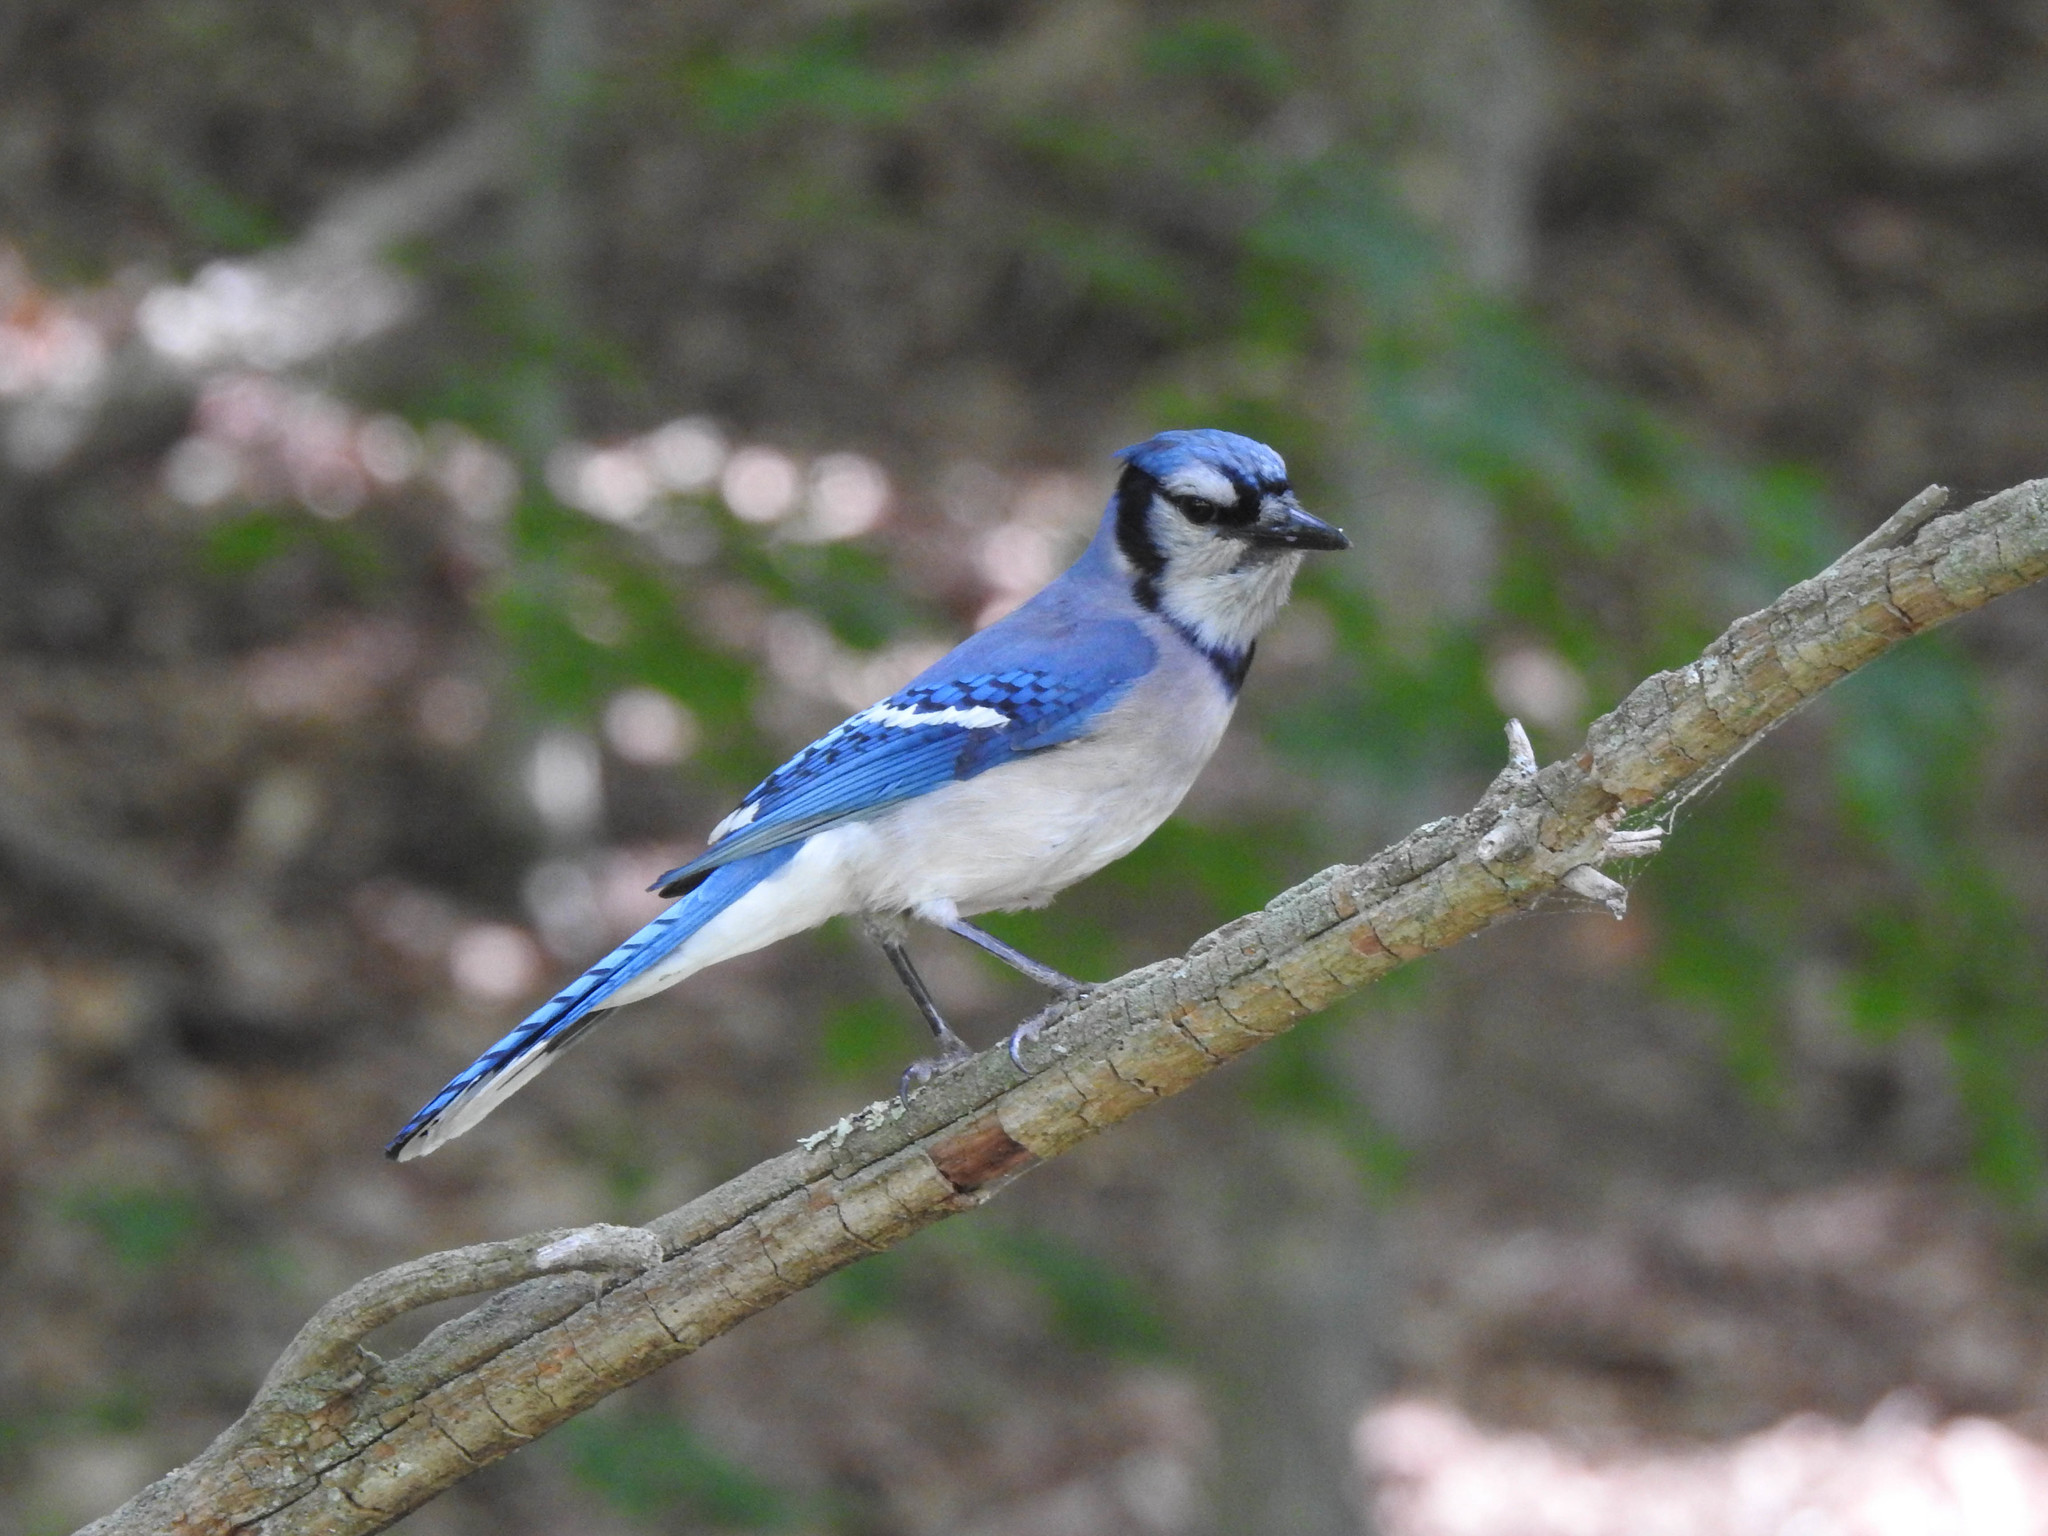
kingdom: Animalia
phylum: Chordata
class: Aves
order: Passeriformes
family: Corvidae
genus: Cyanocitta
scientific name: Cyanocitta cristata
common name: Blue jay
